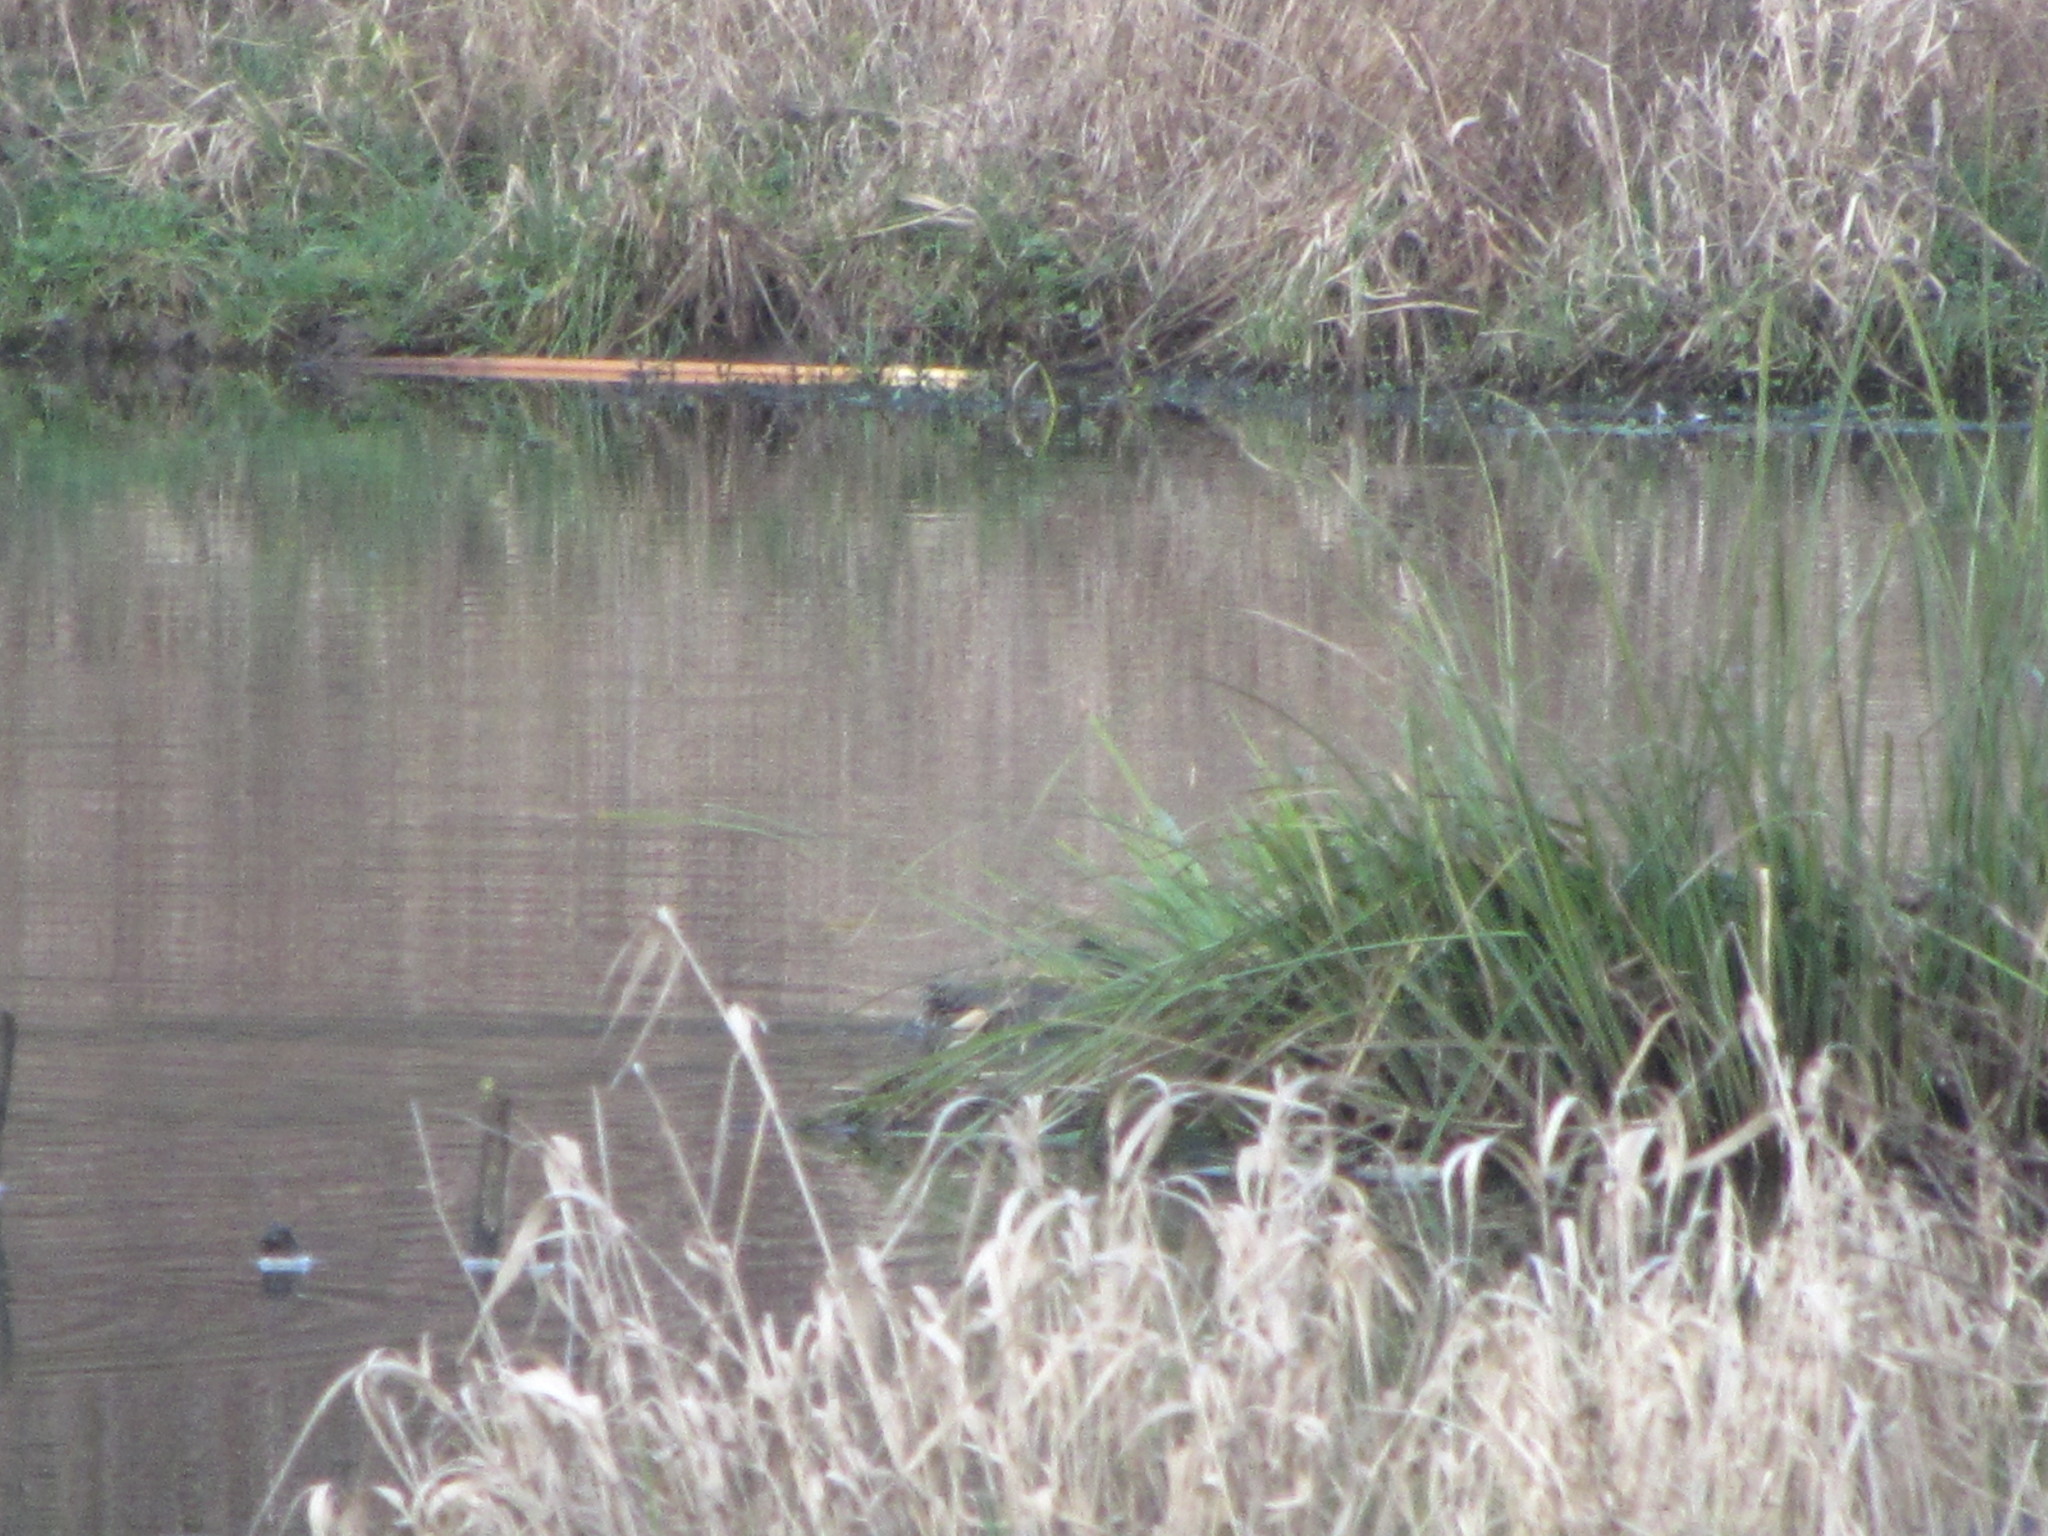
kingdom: Animalia
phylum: Chordata
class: Aves
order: Anseriformes
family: Anatidae
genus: Anas
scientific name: Anas crecca
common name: Eurasian teal
